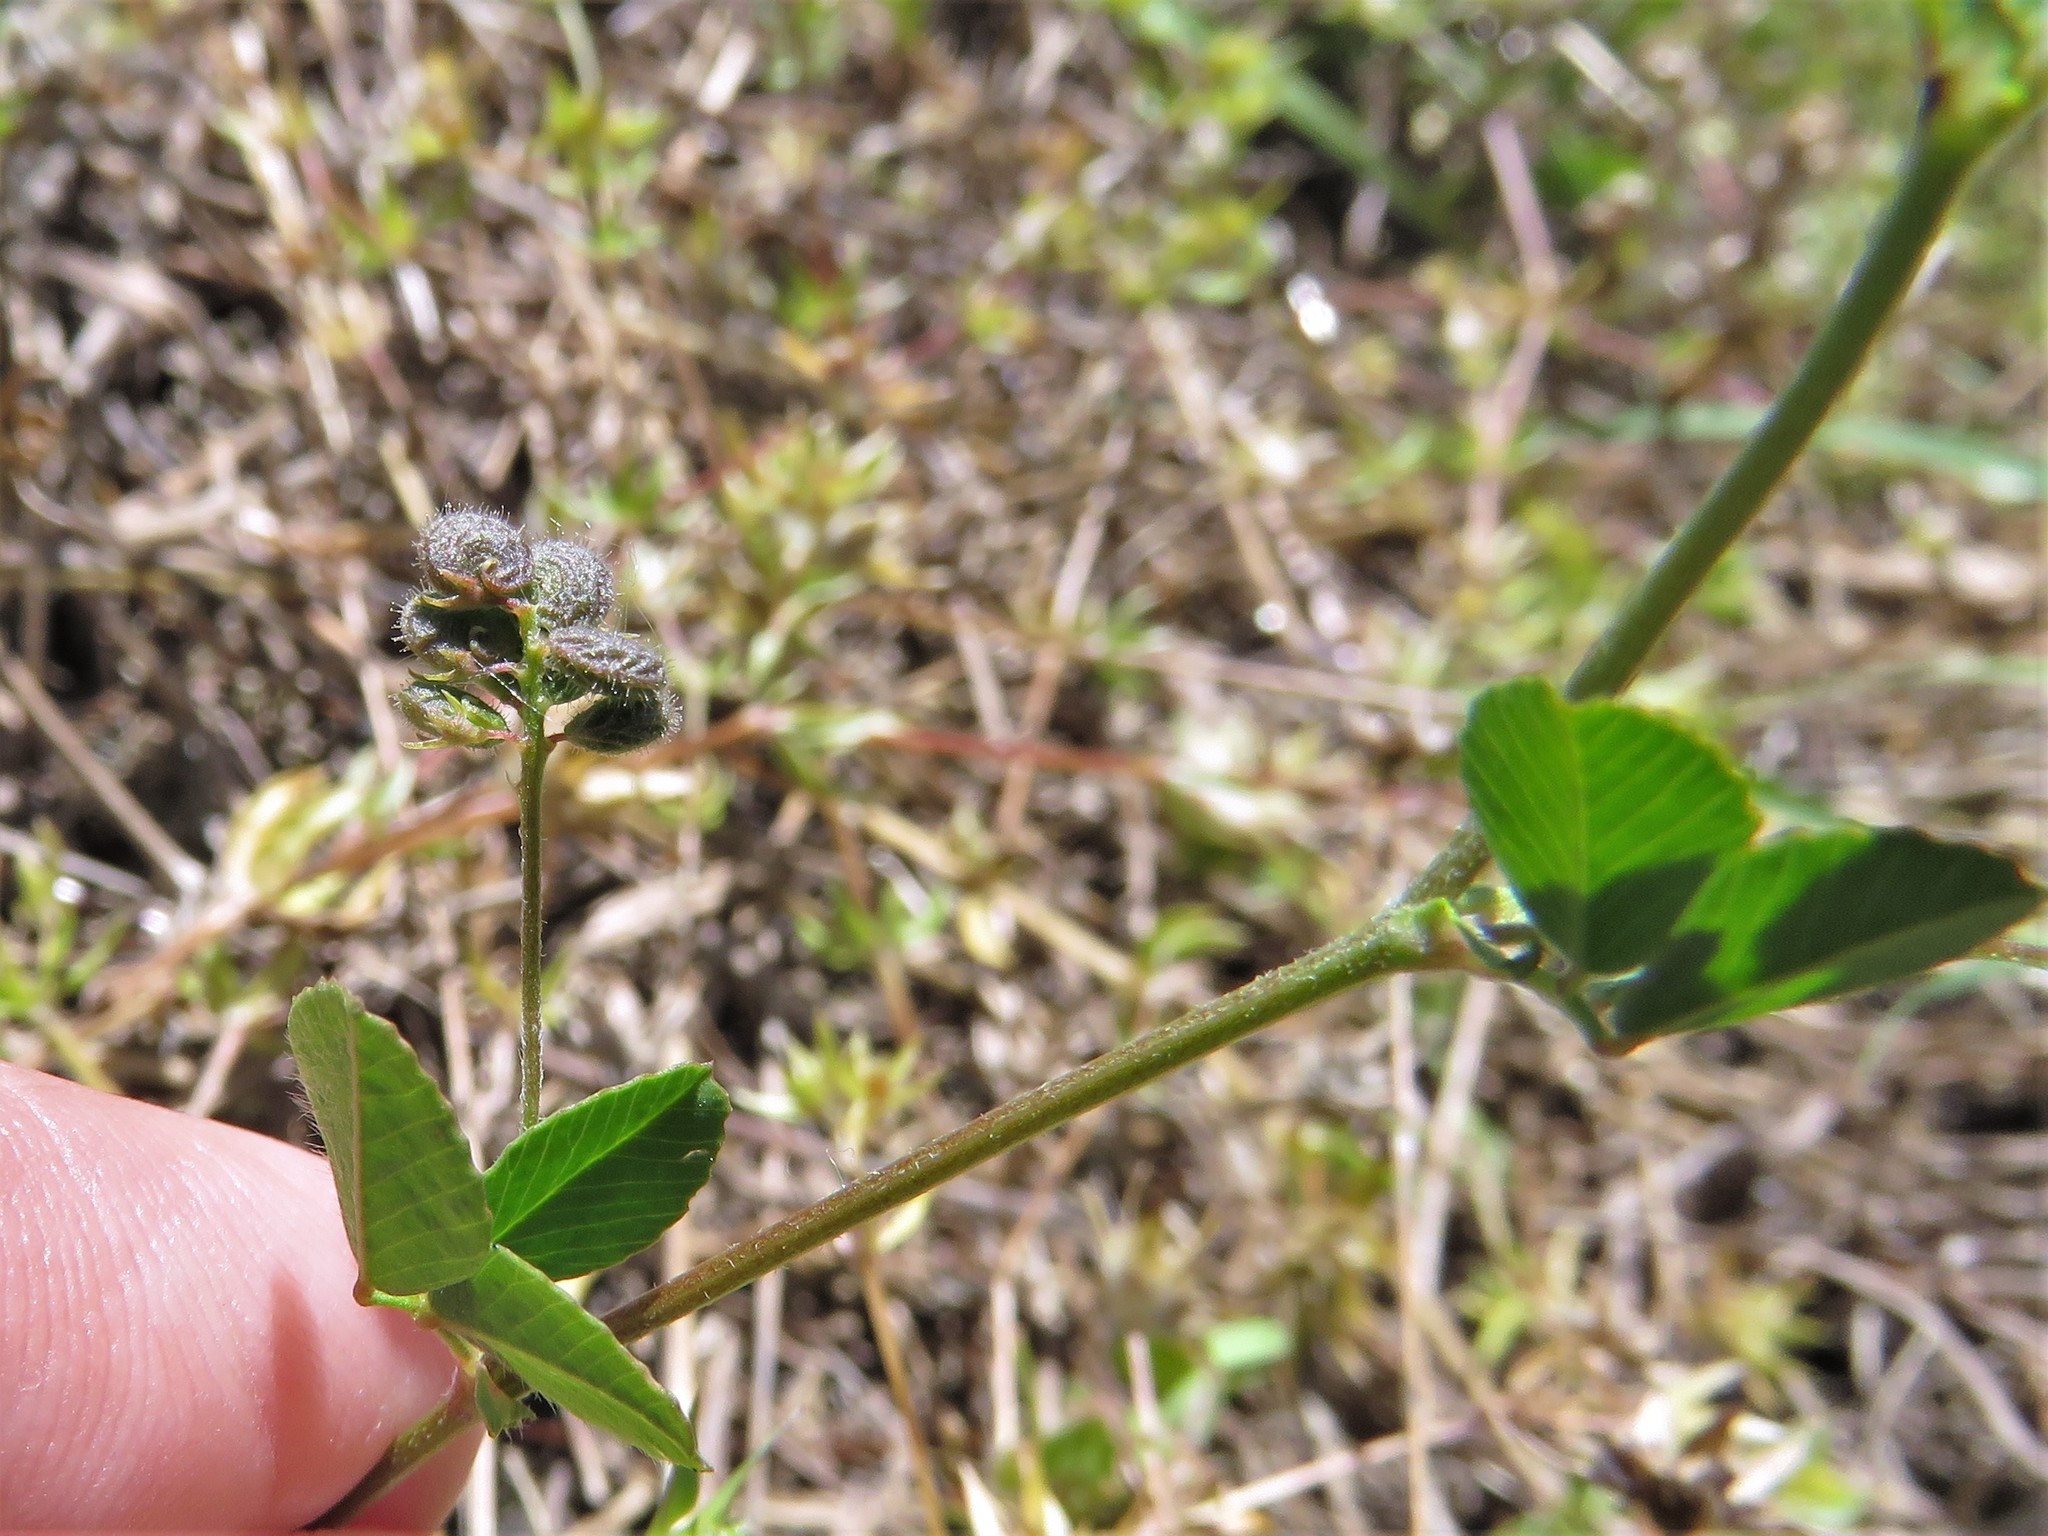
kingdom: Plantae
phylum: Tracheophyta
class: Magnoliopsida
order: Fabales
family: Fabaceae
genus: Medicago
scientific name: Medicago lupulina
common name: Black medick
